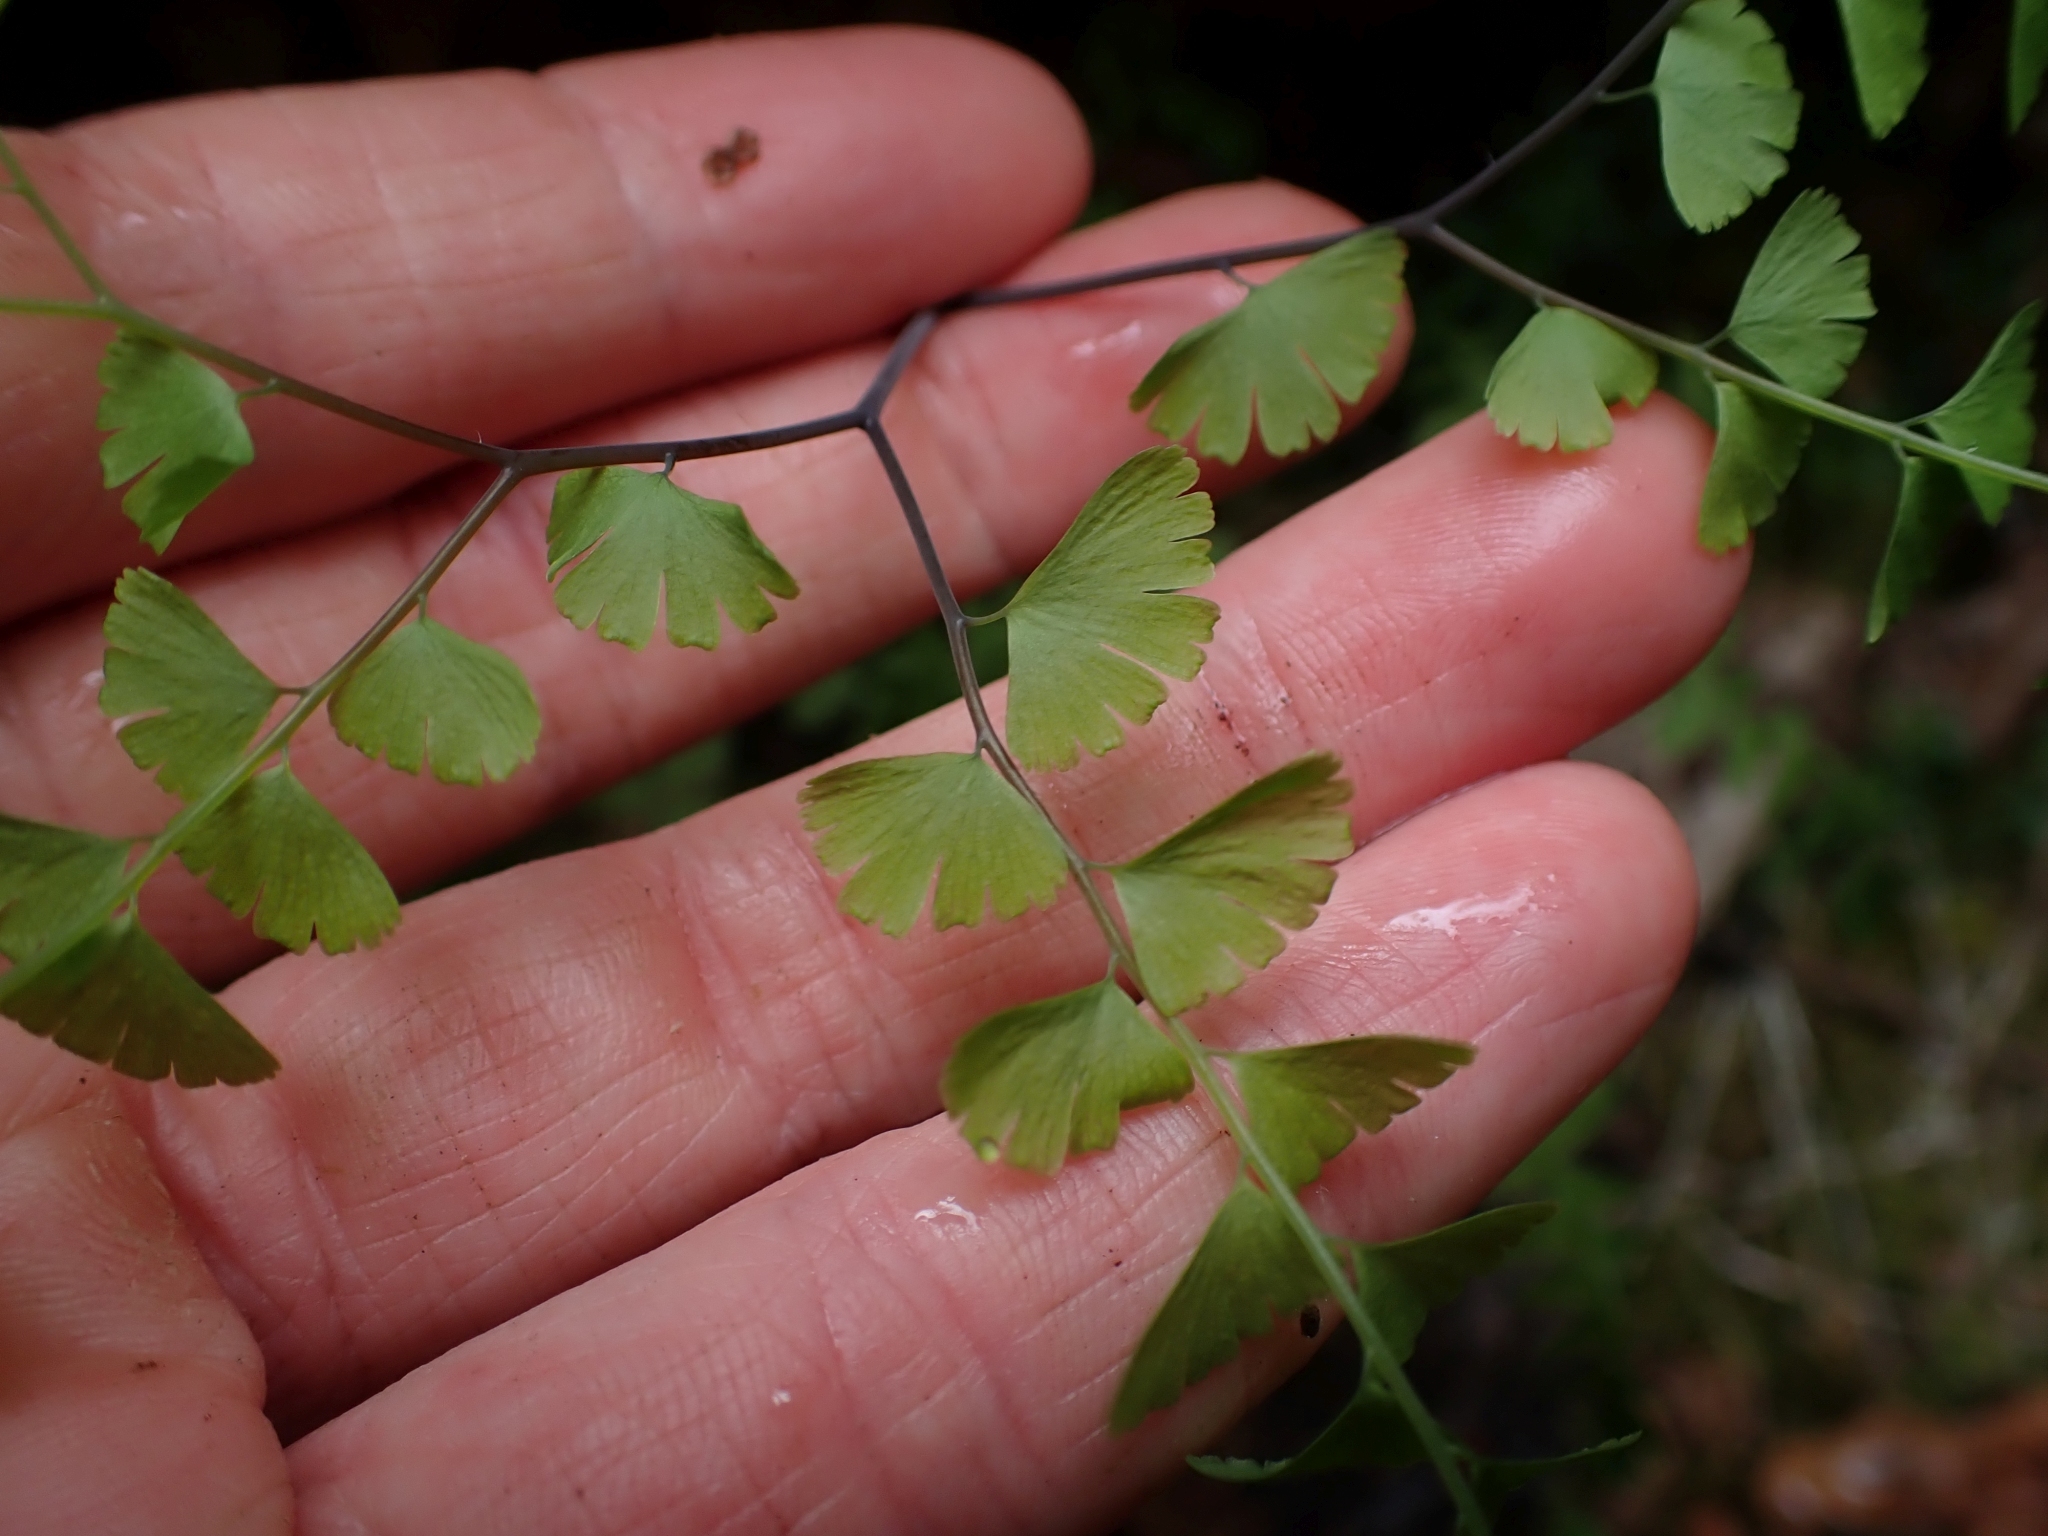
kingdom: Plantae
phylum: Tracheophyta
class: Polypodiopsida
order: Polypodiales
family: Pteridaceae
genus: Adiantum
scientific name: Adiantum aleuticum
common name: Aleutian maidenhair fern
